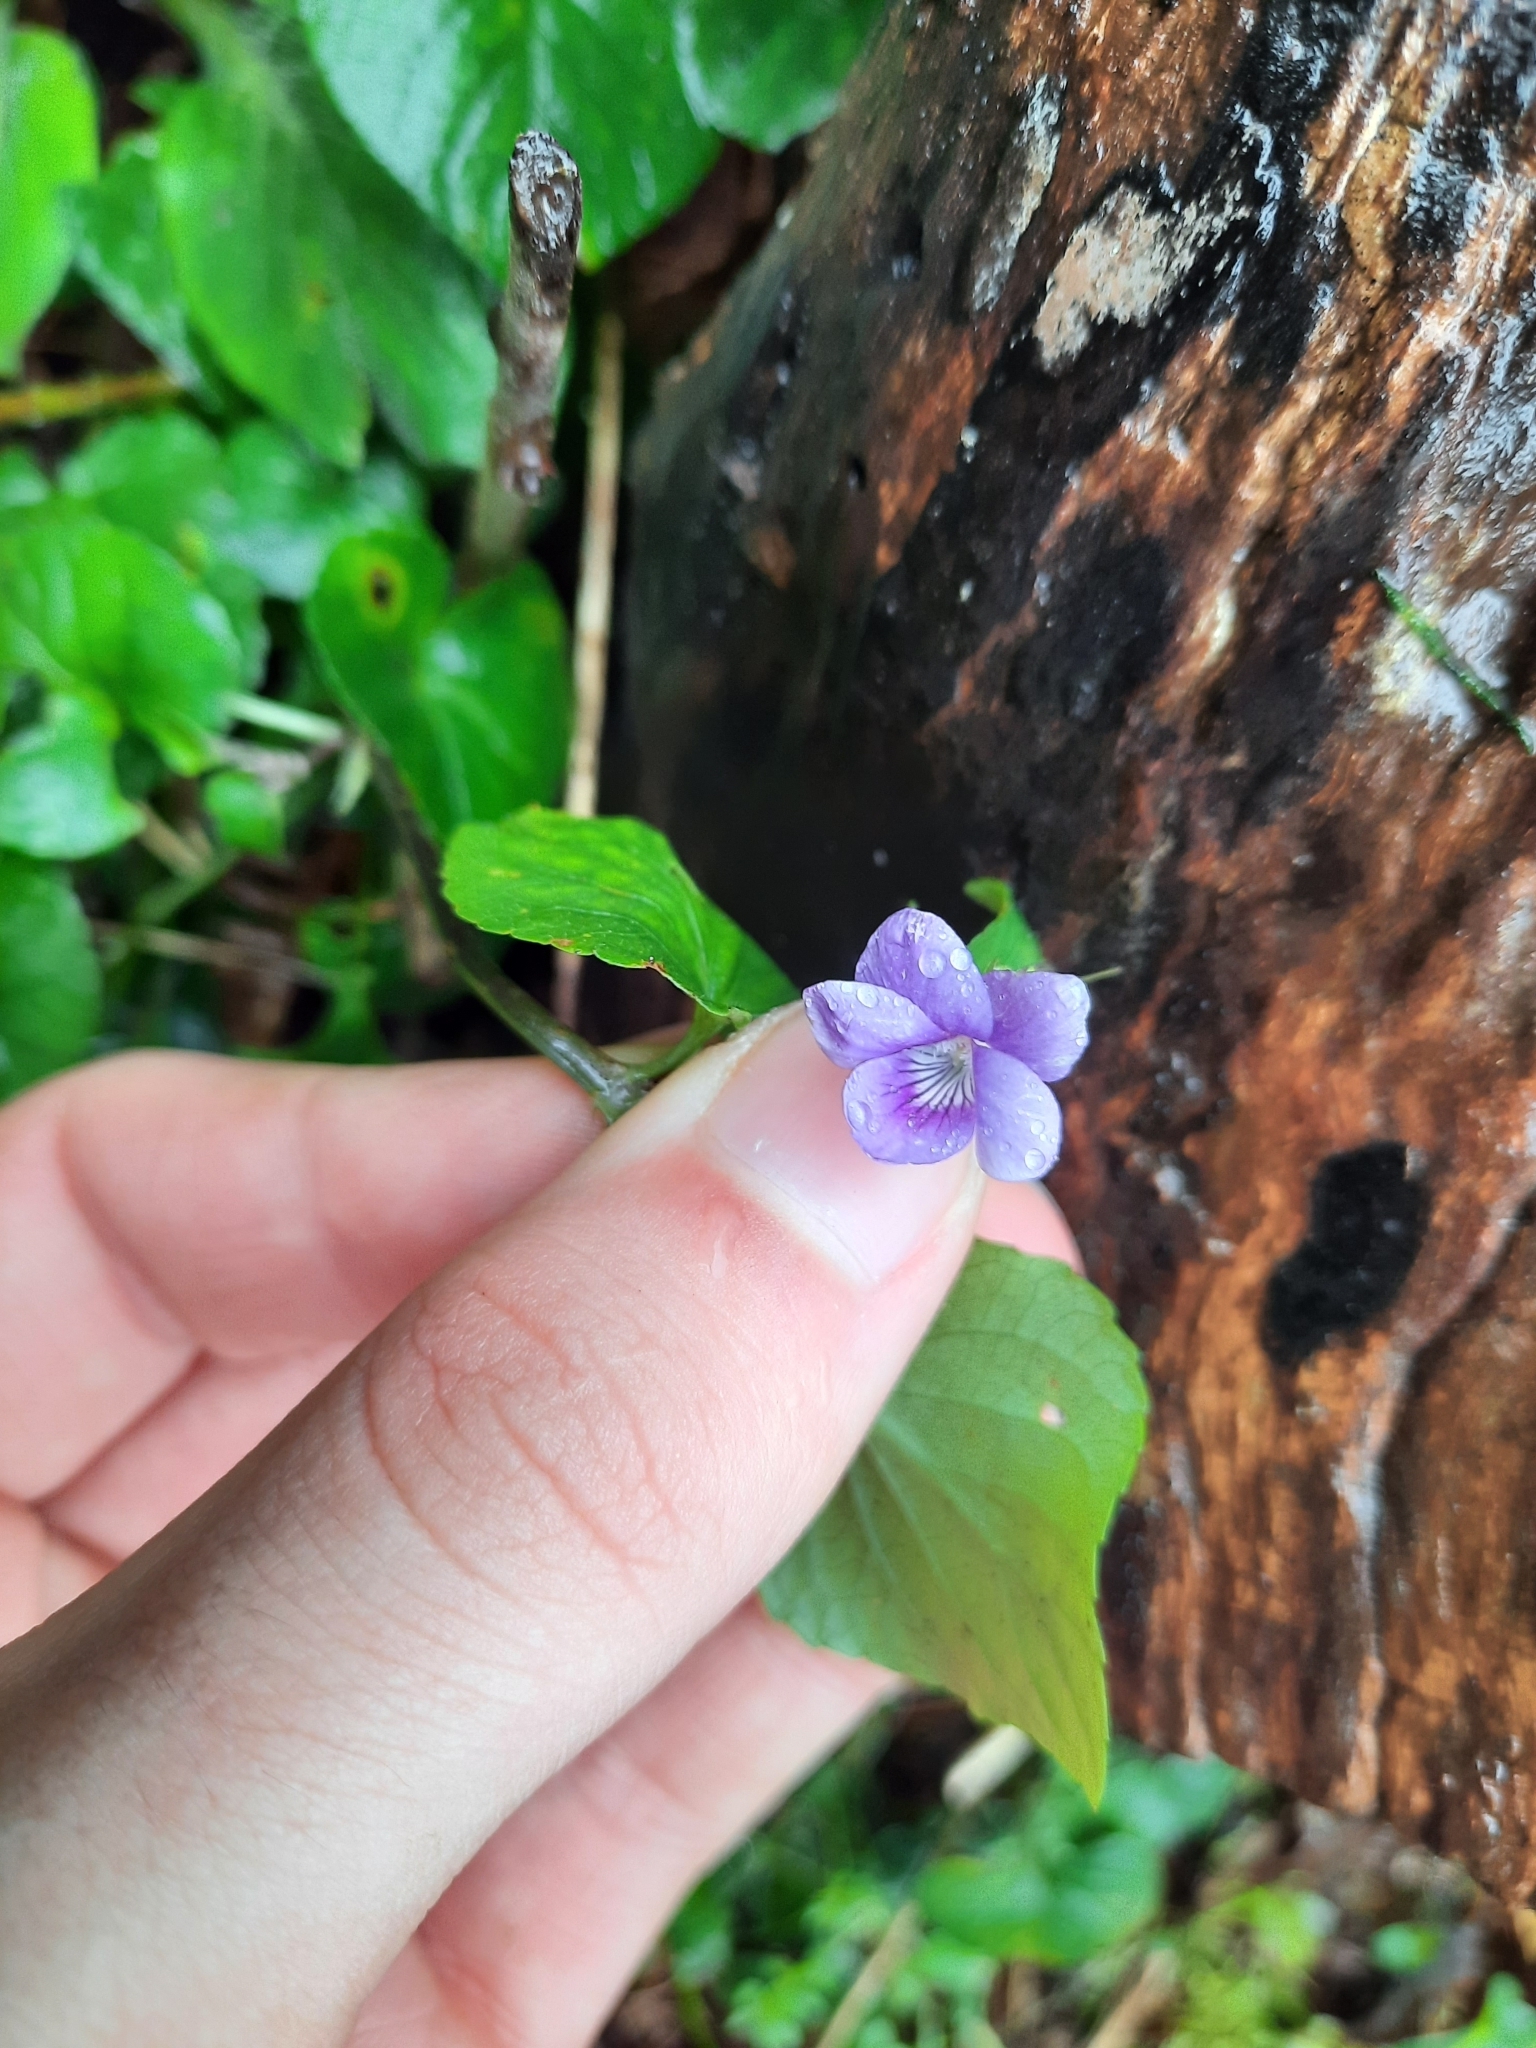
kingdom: Plantae
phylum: Tracheophyta
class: Magnoliopsida
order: Malpighiales
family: Violaceae
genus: Viola
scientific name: Viola riviniana
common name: Common dog-violet
